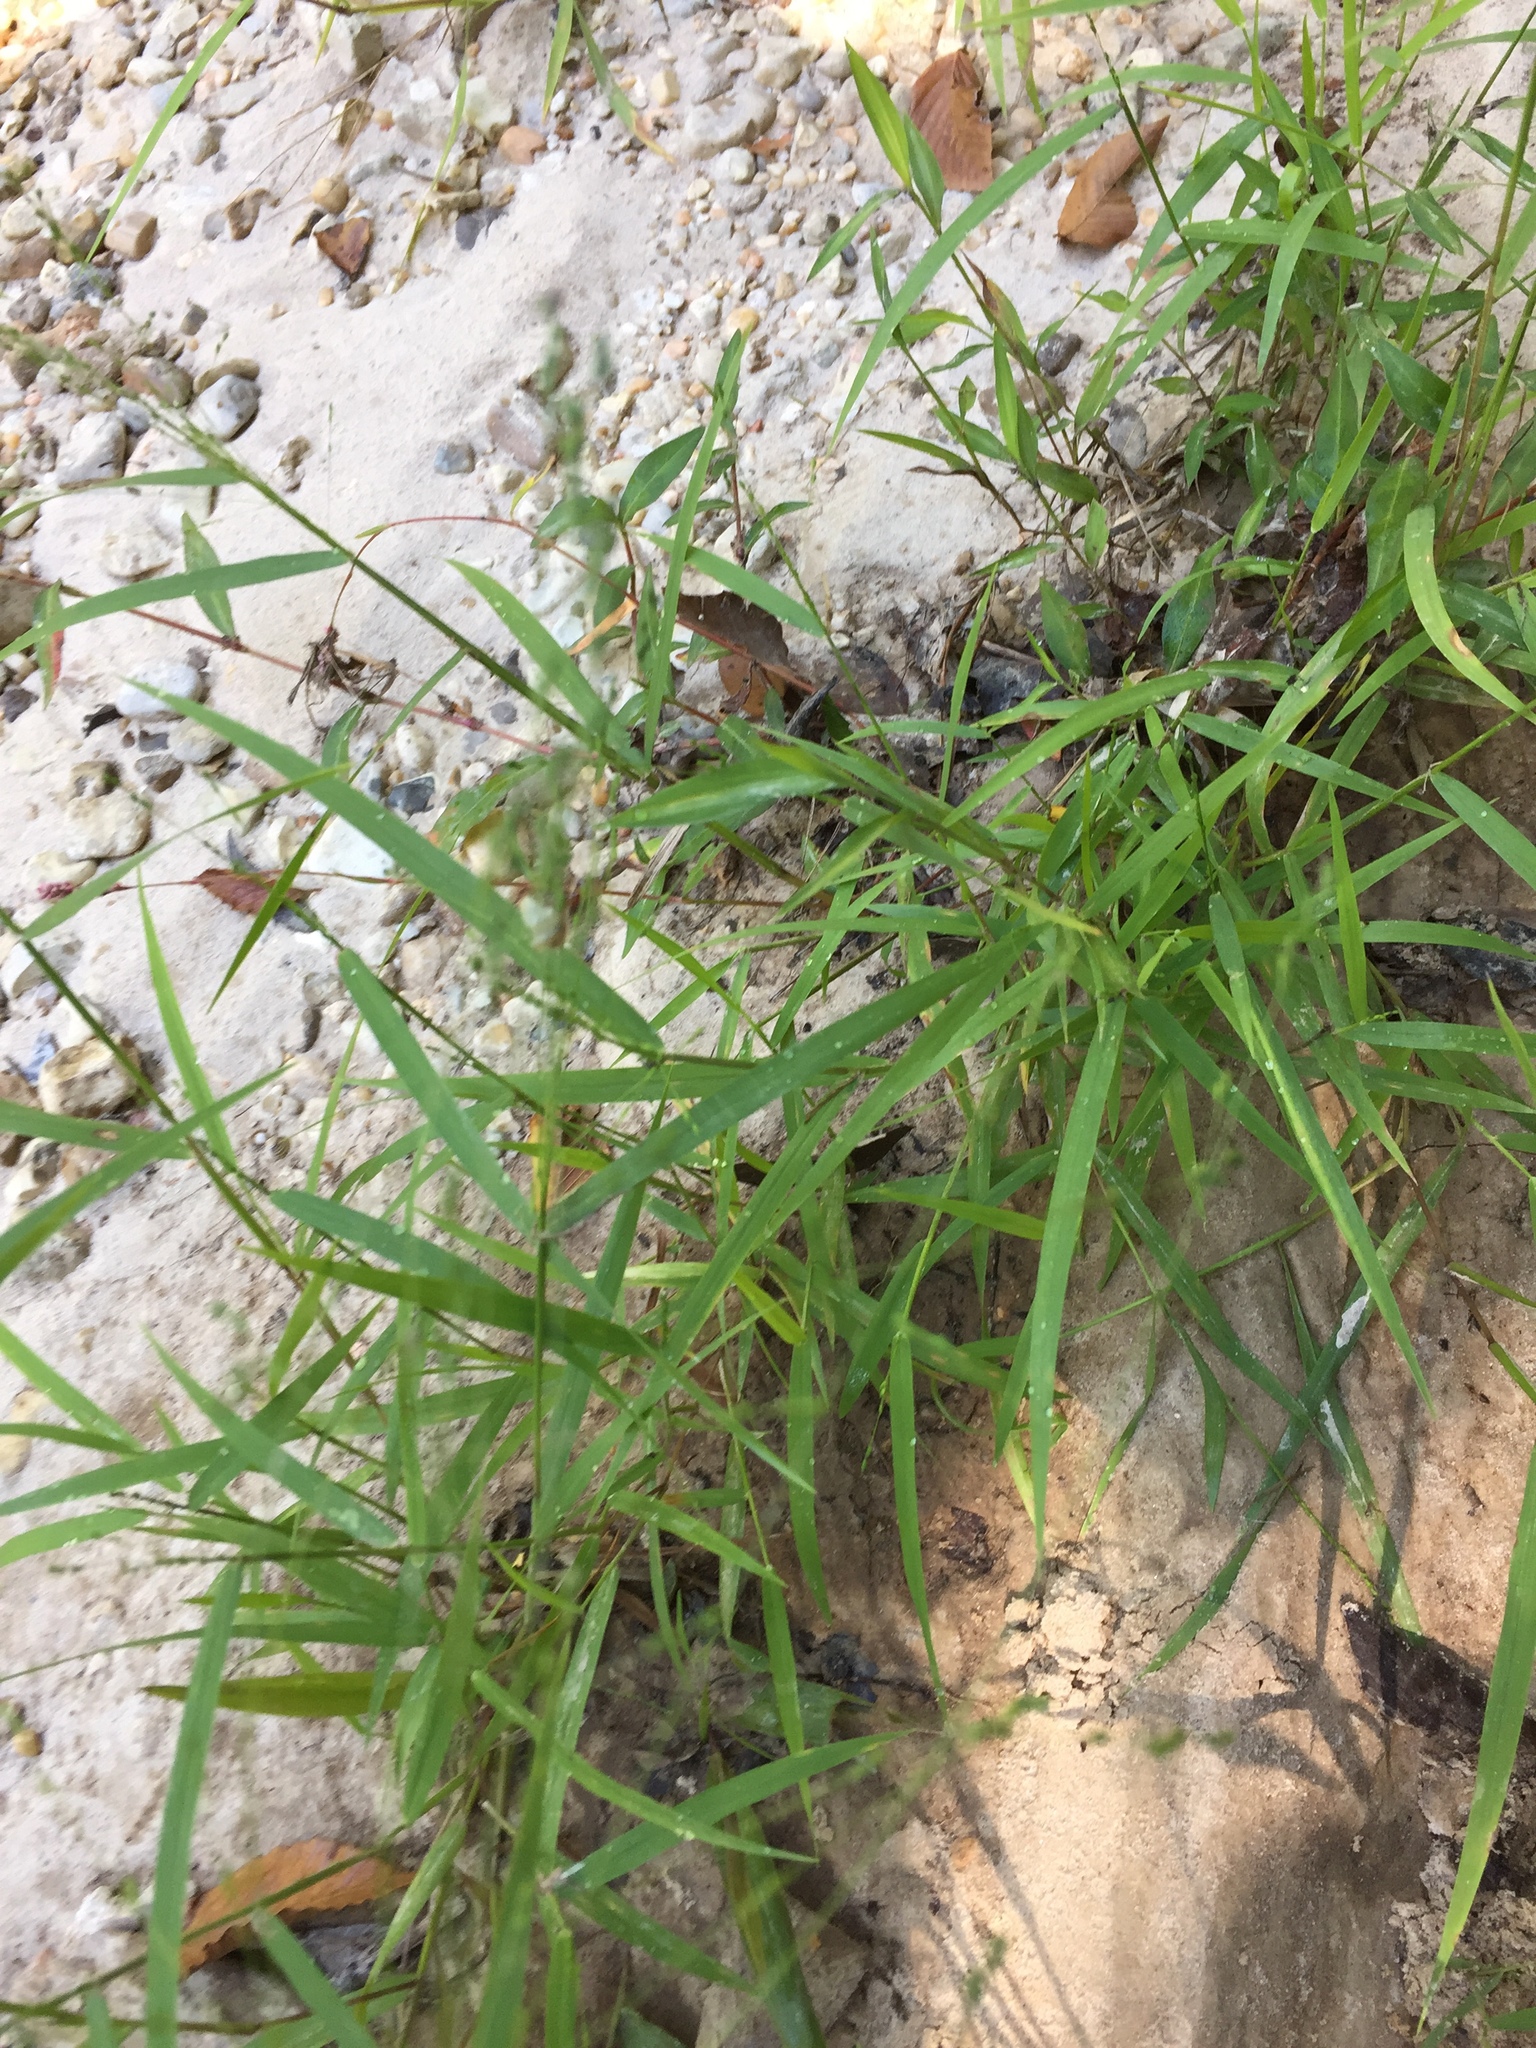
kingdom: Plantae
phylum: Tracheophyta
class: Liliopsida
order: Poales
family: Poaceae
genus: Kellochloa
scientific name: Kellochloa verrucosa
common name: Warty panic grass
